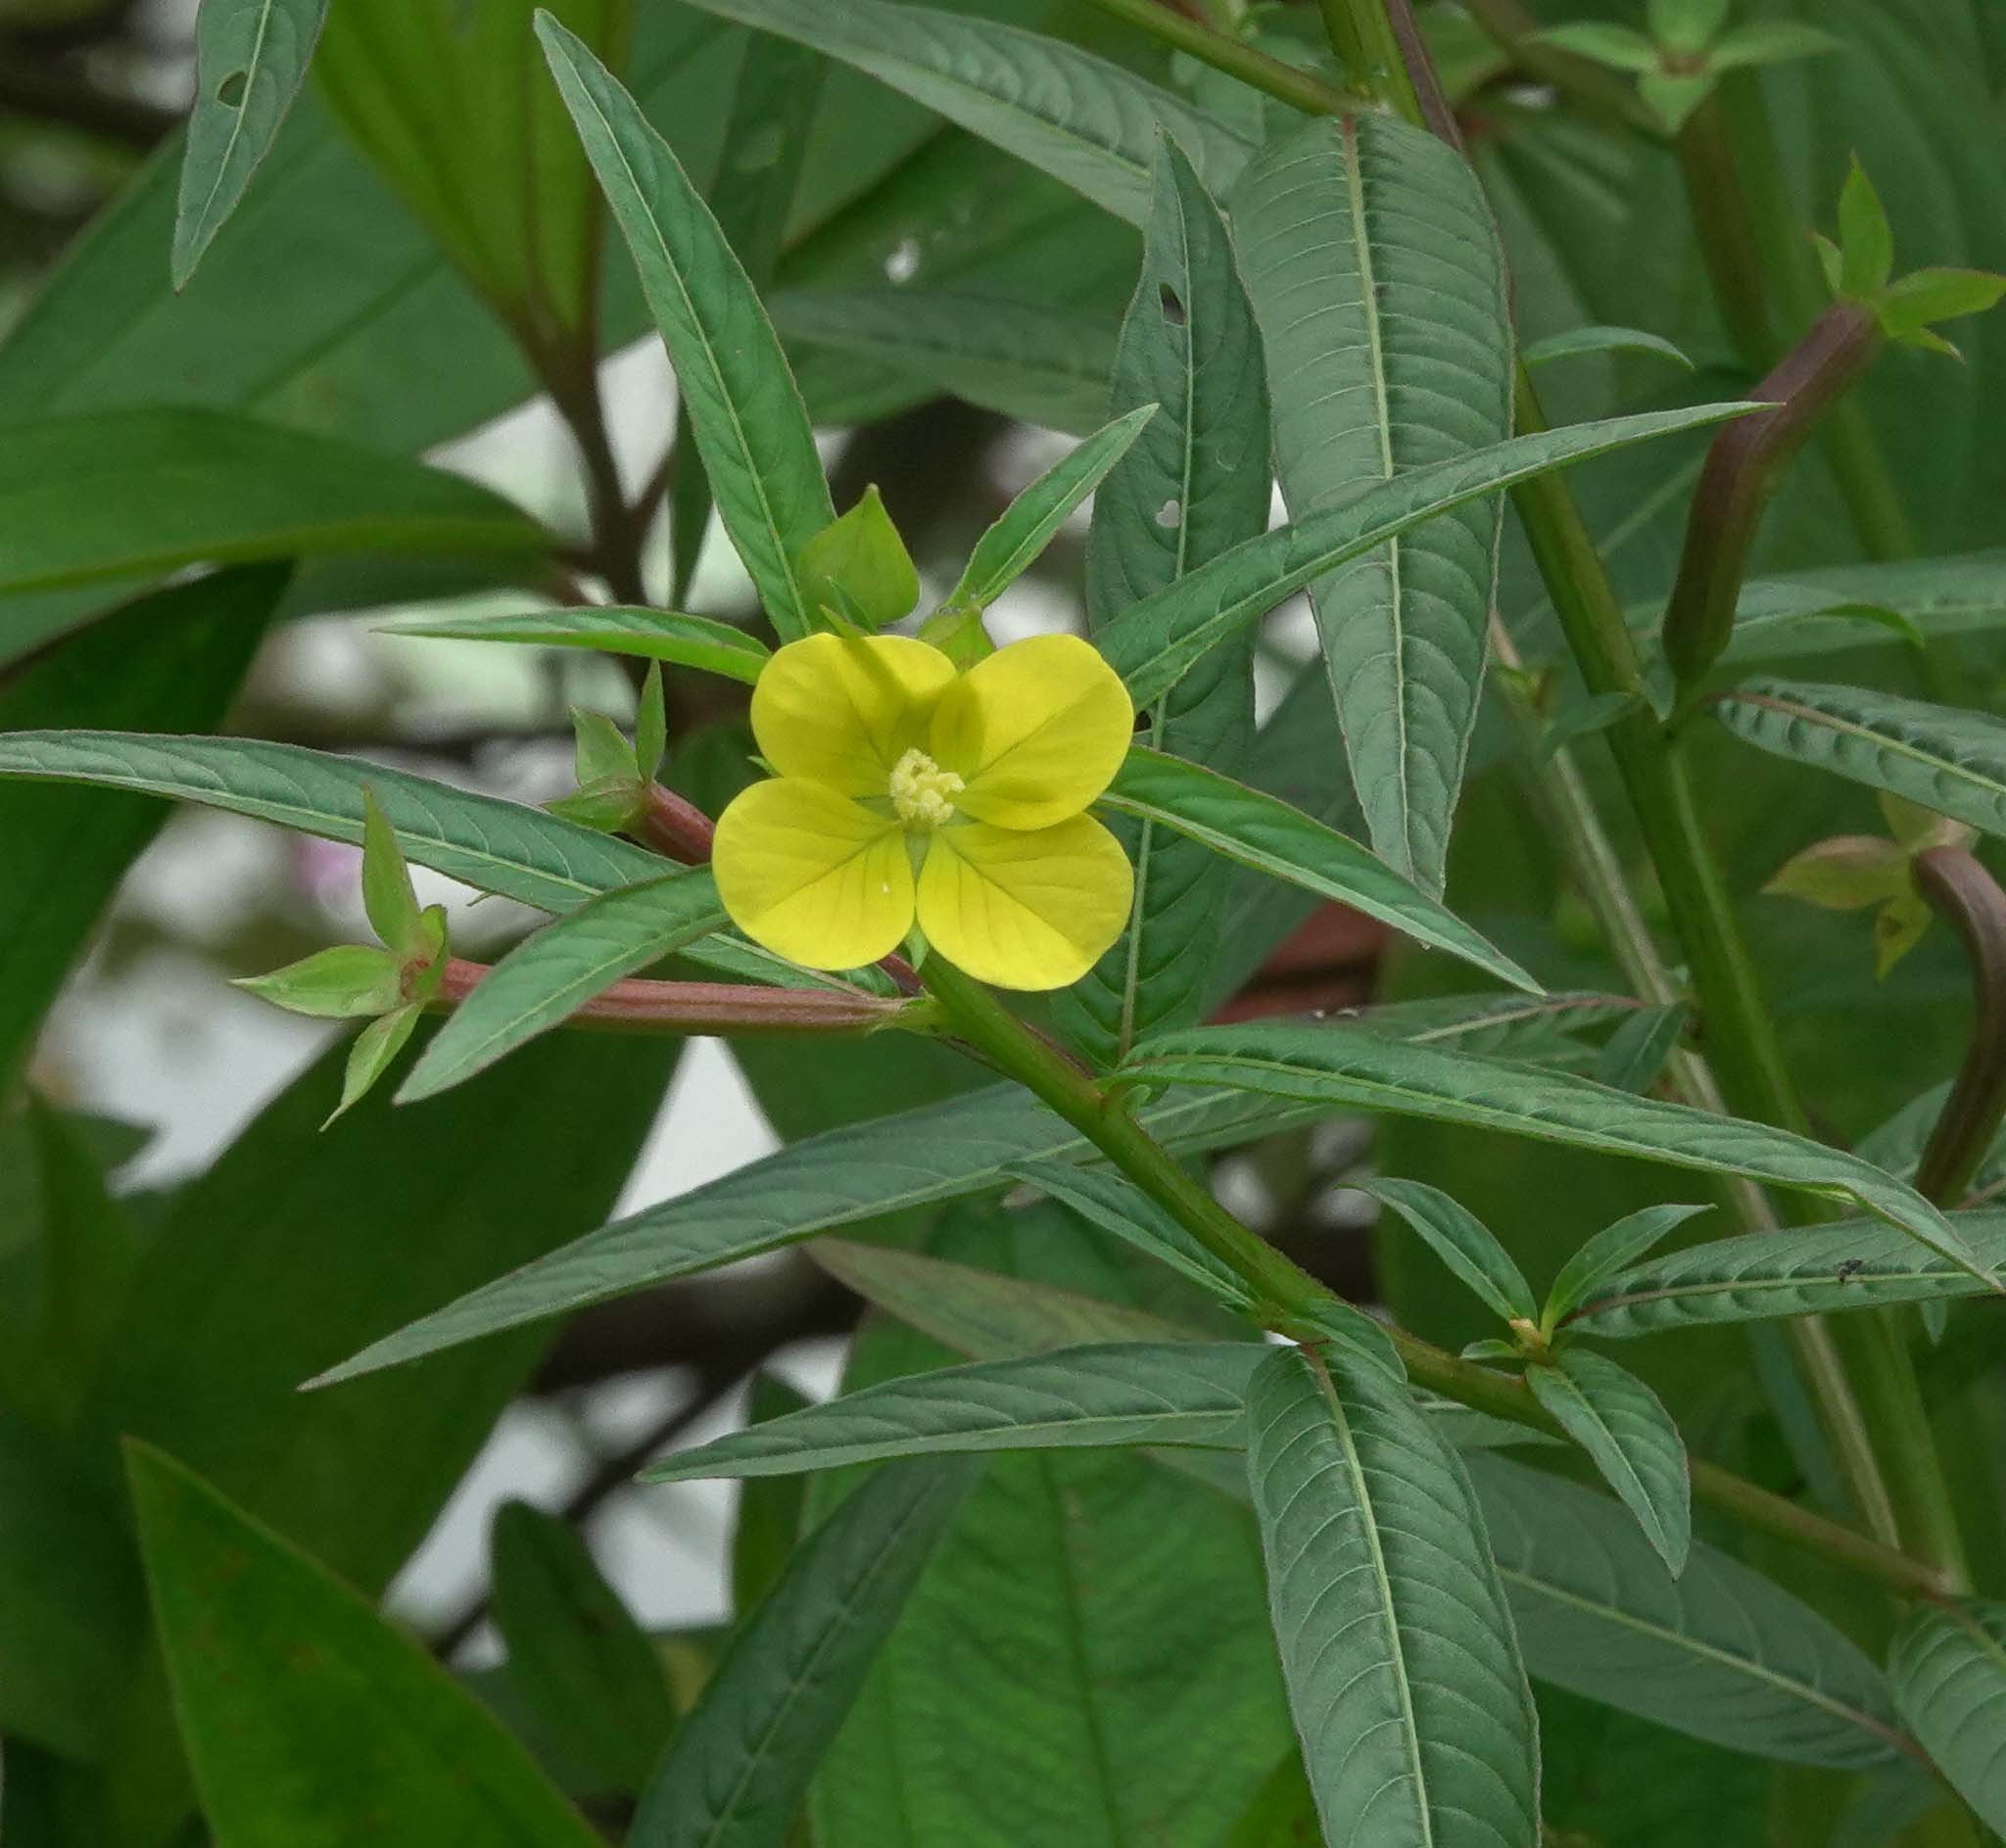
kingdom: Plantae
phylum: Tracheophyta
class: Magnoliopsida
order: Myrtales
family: Onagraceae
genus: Ludwigia
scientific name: Ludwigia decurrens
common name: Winged water-primrose
